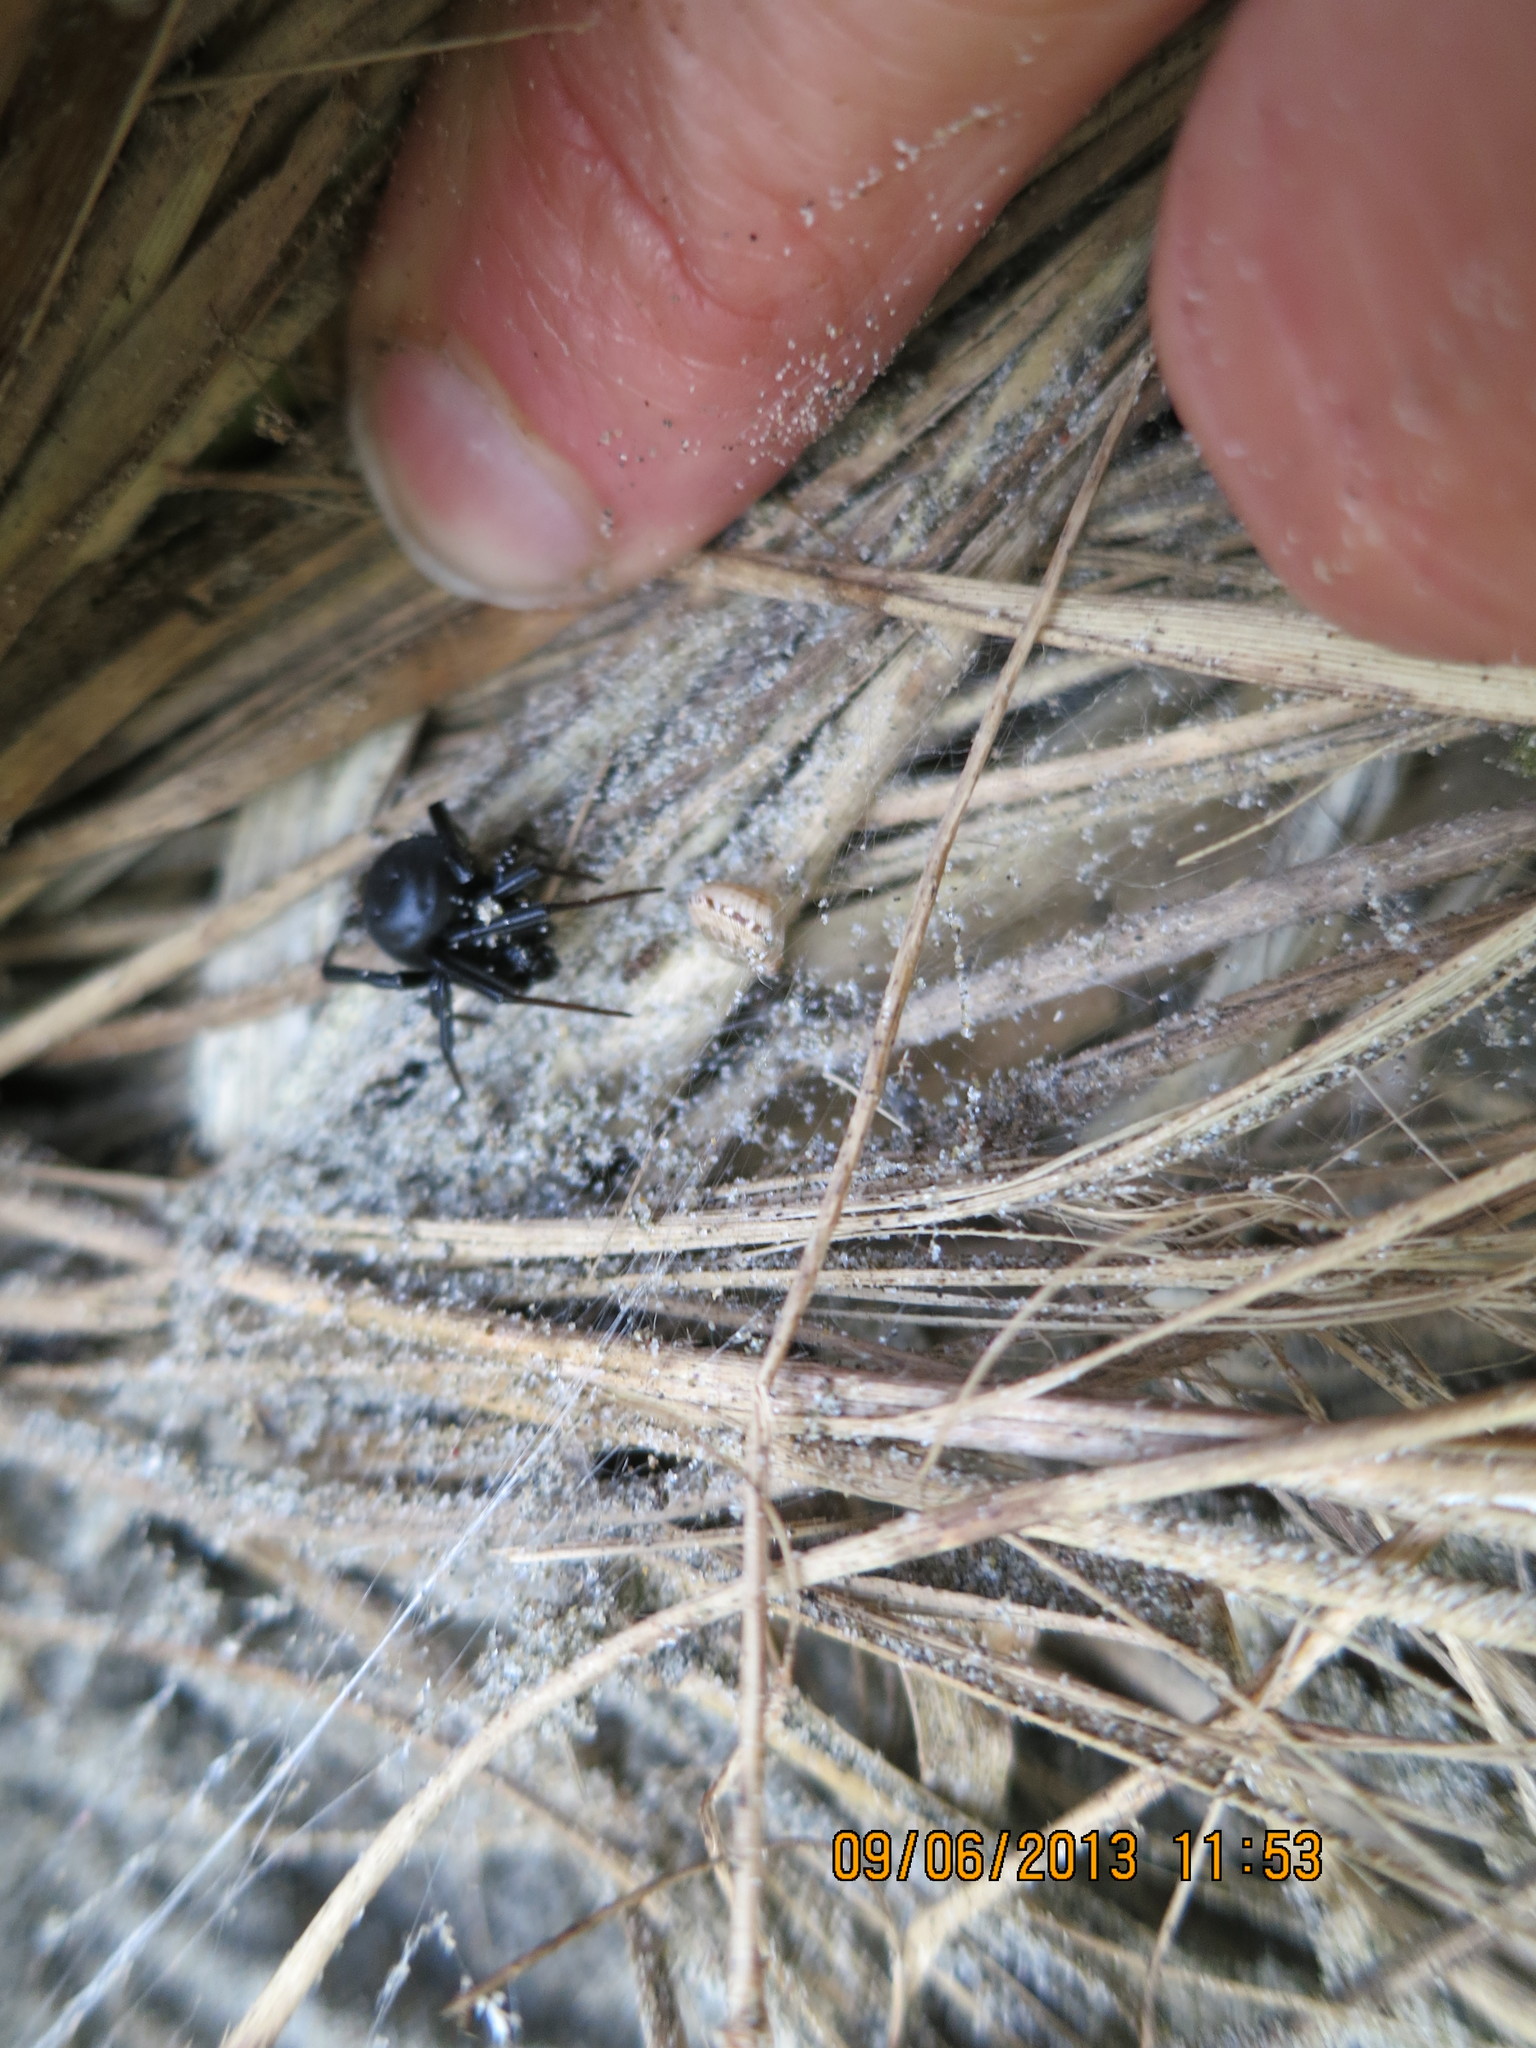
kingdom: Animalia
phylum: Arthropoda
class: Arachnida
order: Araneae
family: Theridiidae
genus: Latrodectus
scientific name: Latrodectus katipo
